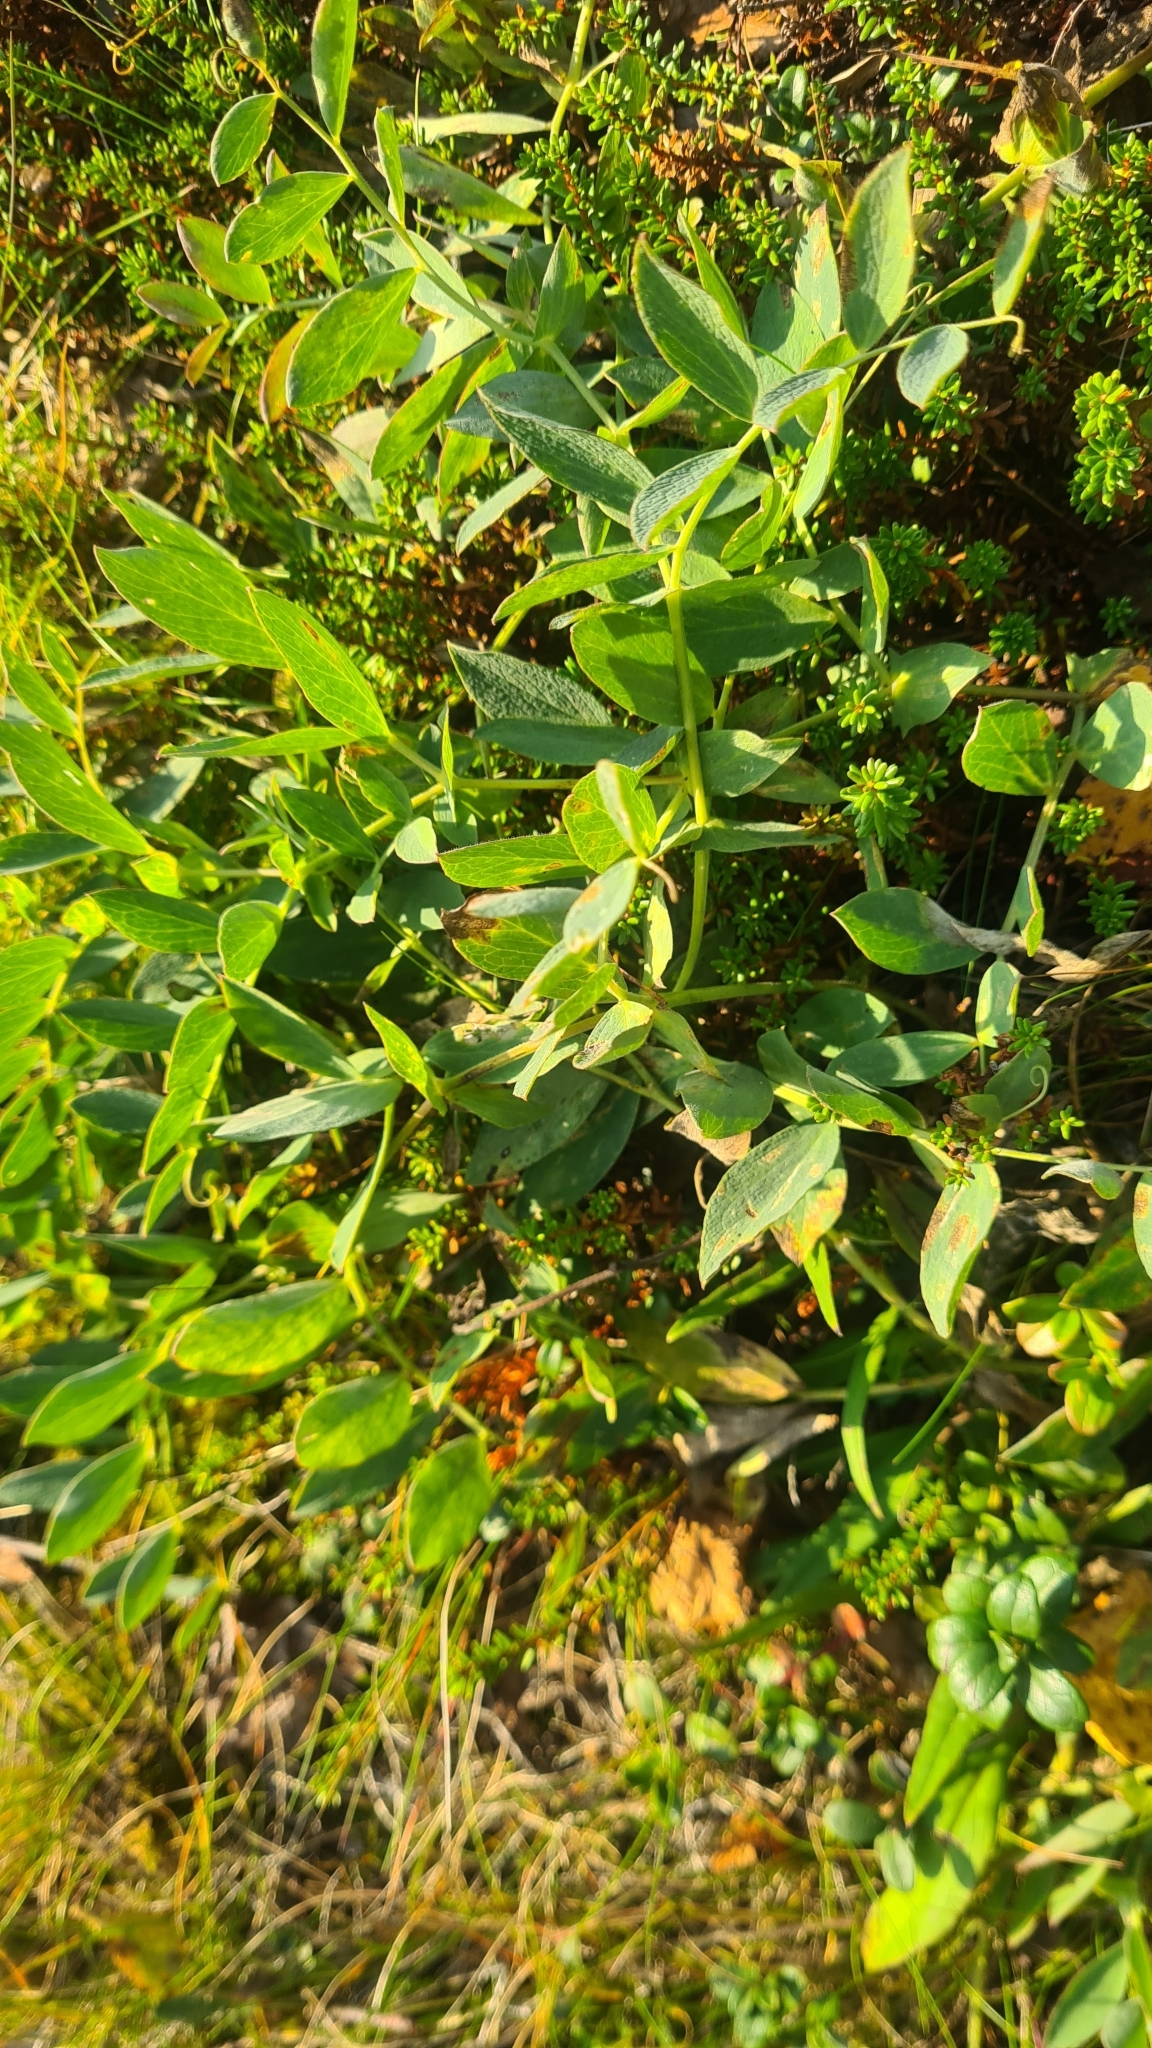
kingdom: Plantae
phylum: Tracheophyta
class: Magnoliopsida
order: Fabales
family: Fabaceae
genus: Lathyrus
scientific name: Lathyrus japonicus
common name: Sea pea
